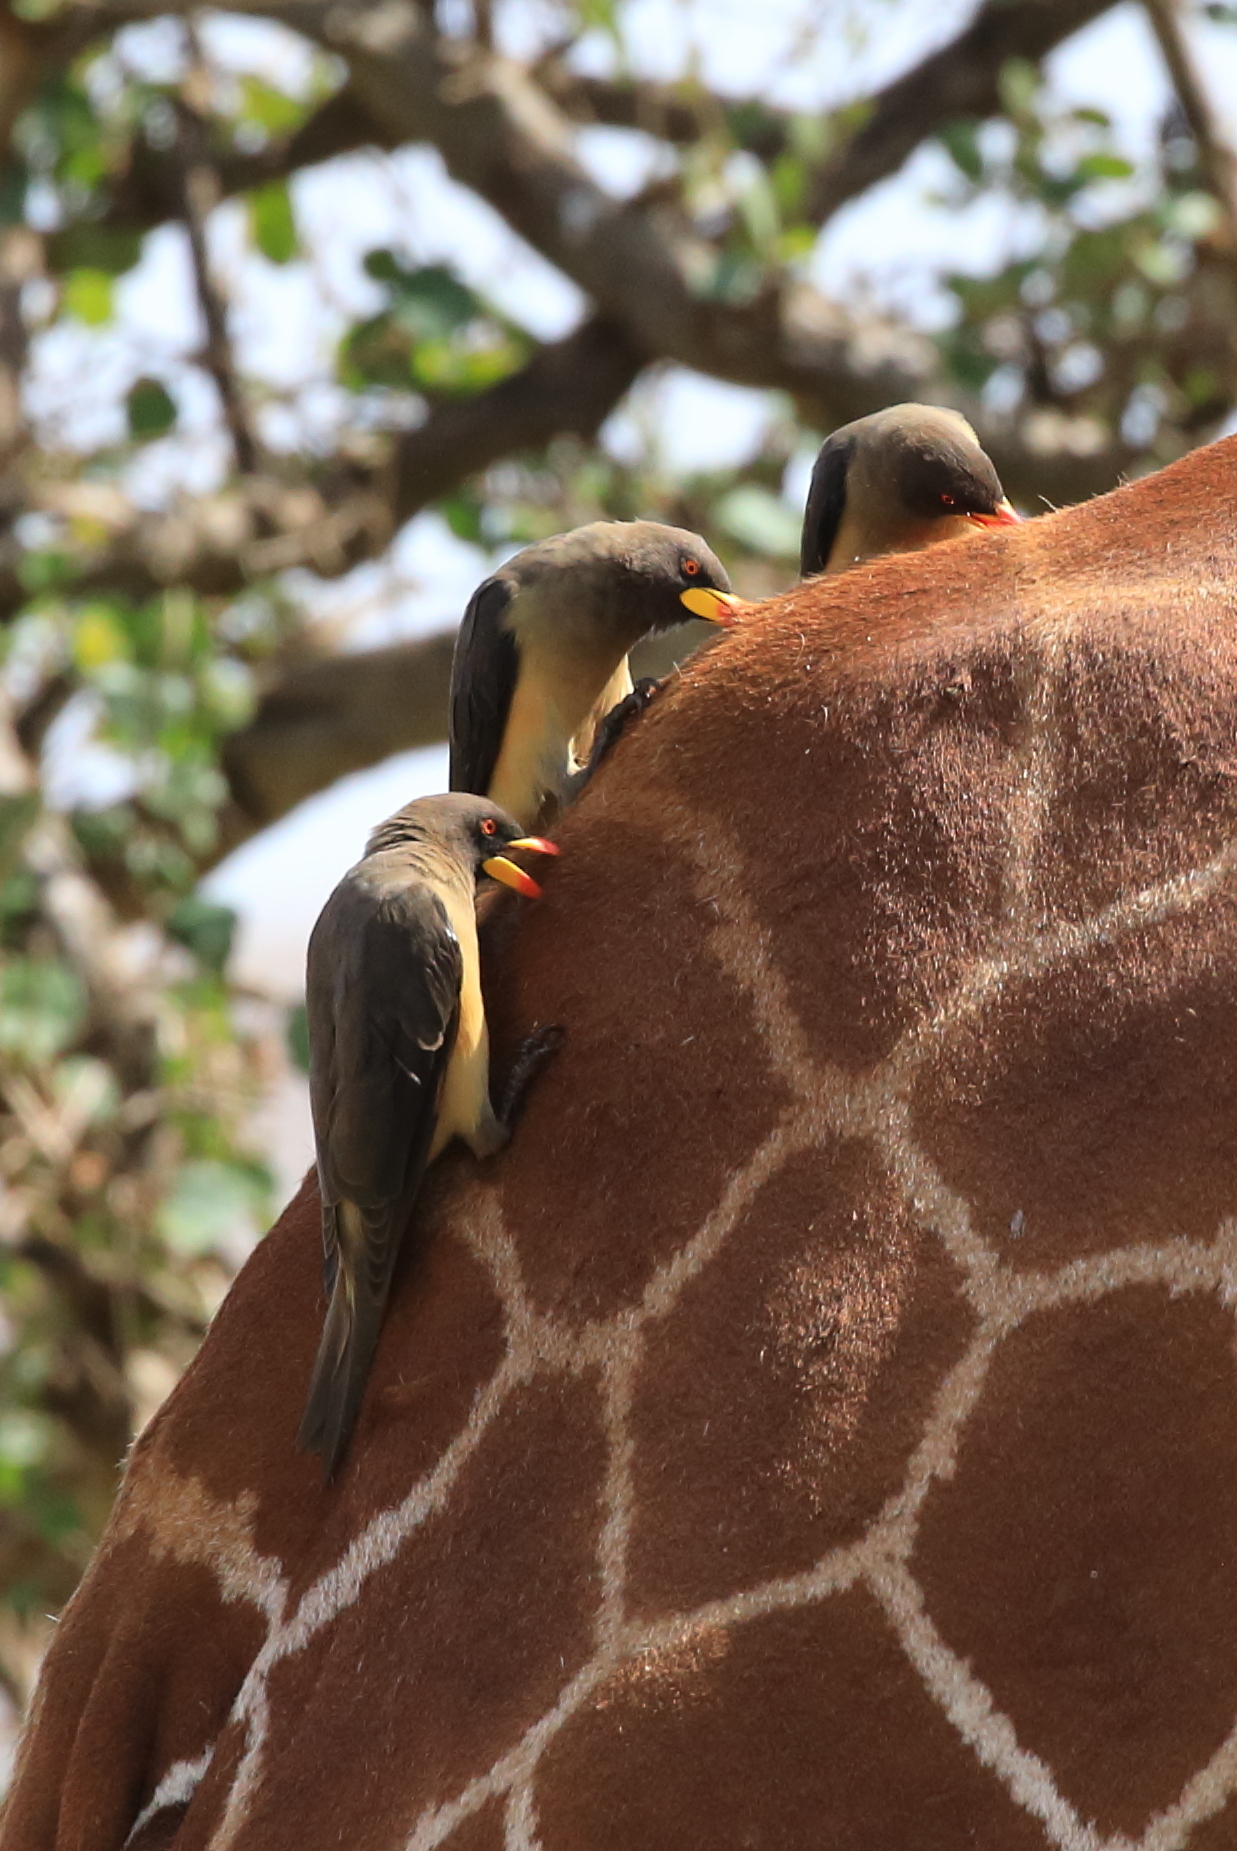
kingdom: Animalia
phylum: Chordata
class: Aves
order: Passeriformes
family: Buphagidae
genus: Buphagus
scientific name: Buphagus africanus
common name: Yellow-billed oxpecker
